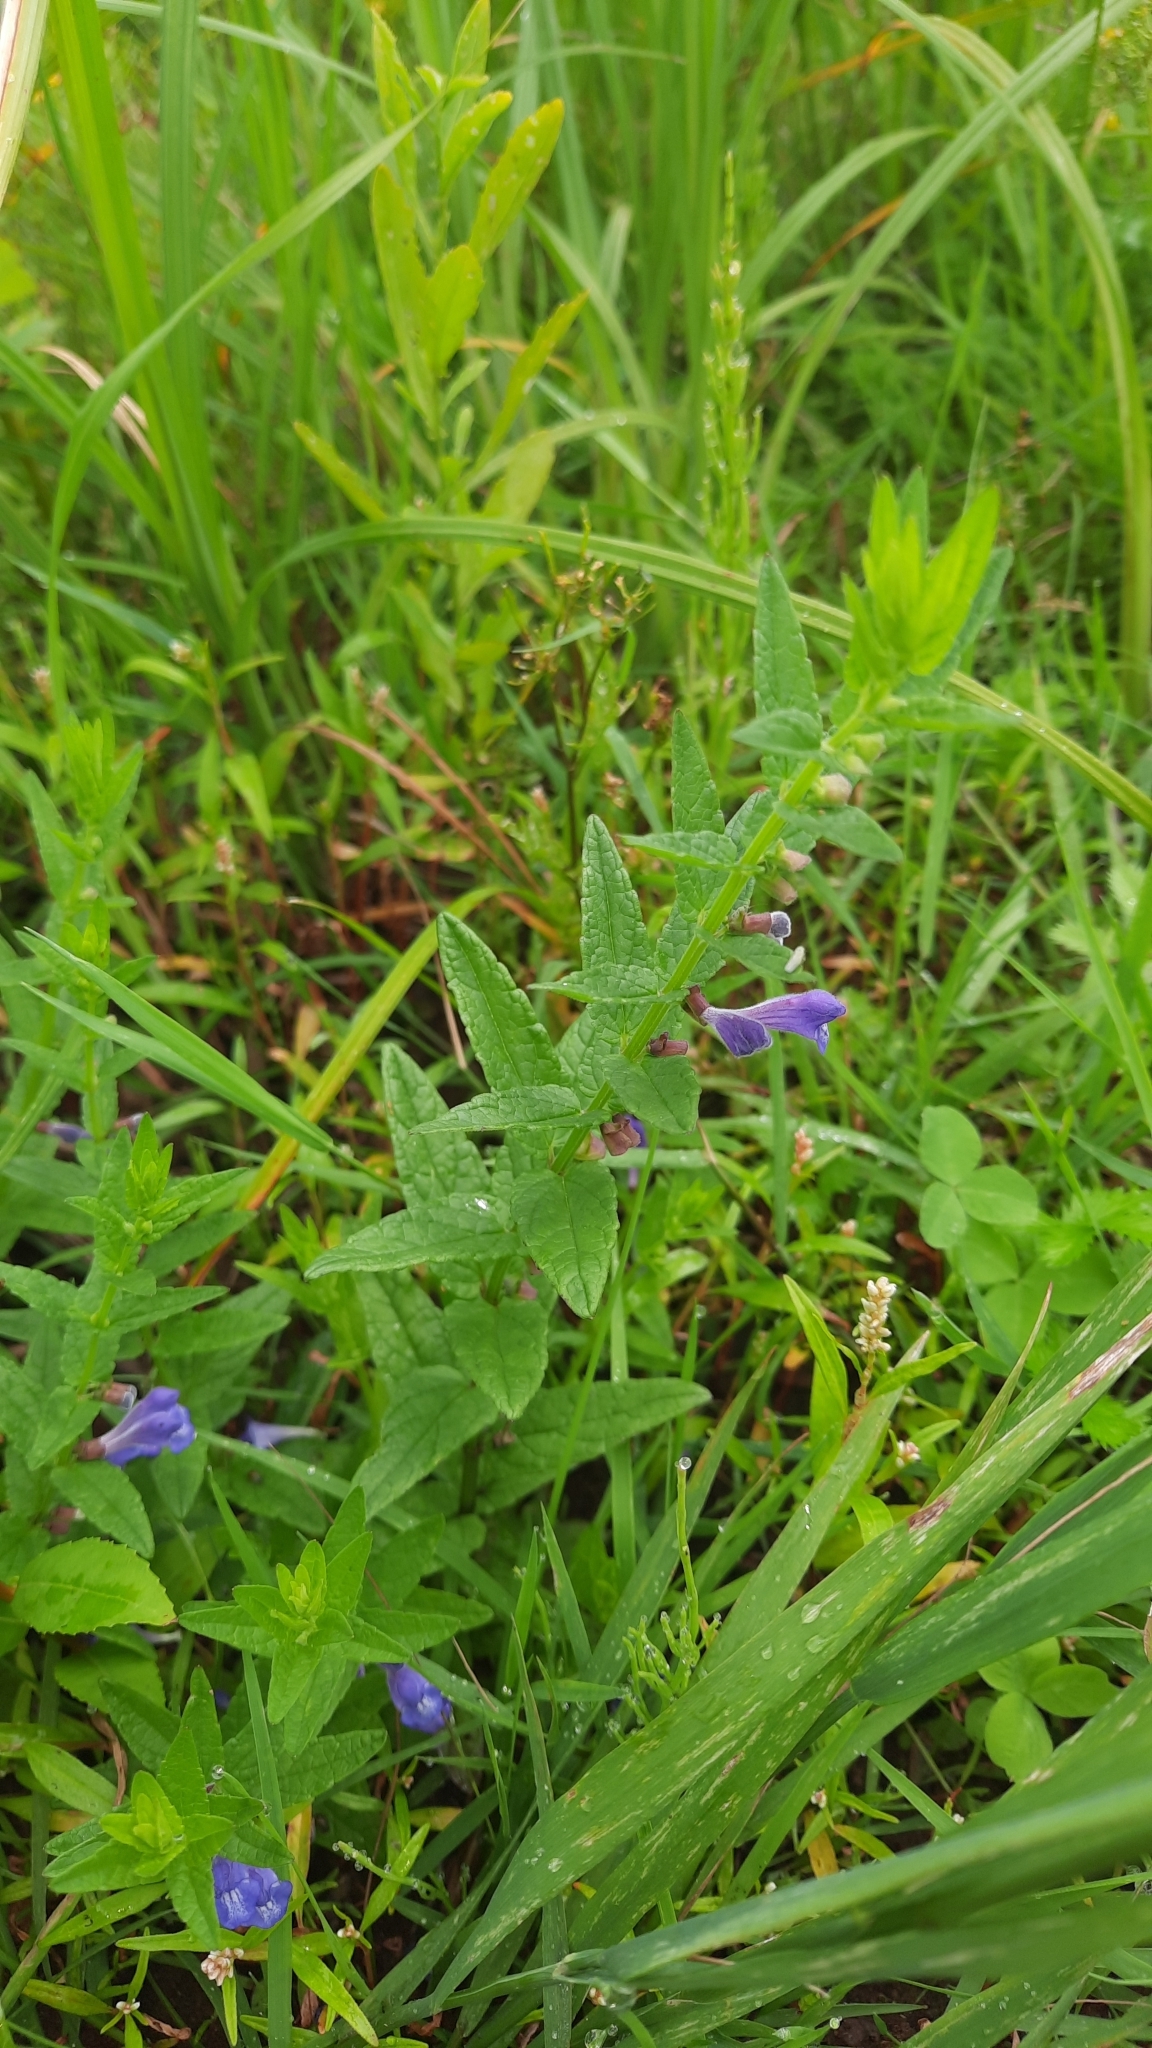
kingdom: Plantae
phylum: Tracheophyta
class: Magnoliopsida
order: Lamiales
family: Lamiaceae
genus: Scutellaria
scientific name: Scutellaria galericulata
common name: Skullcap
